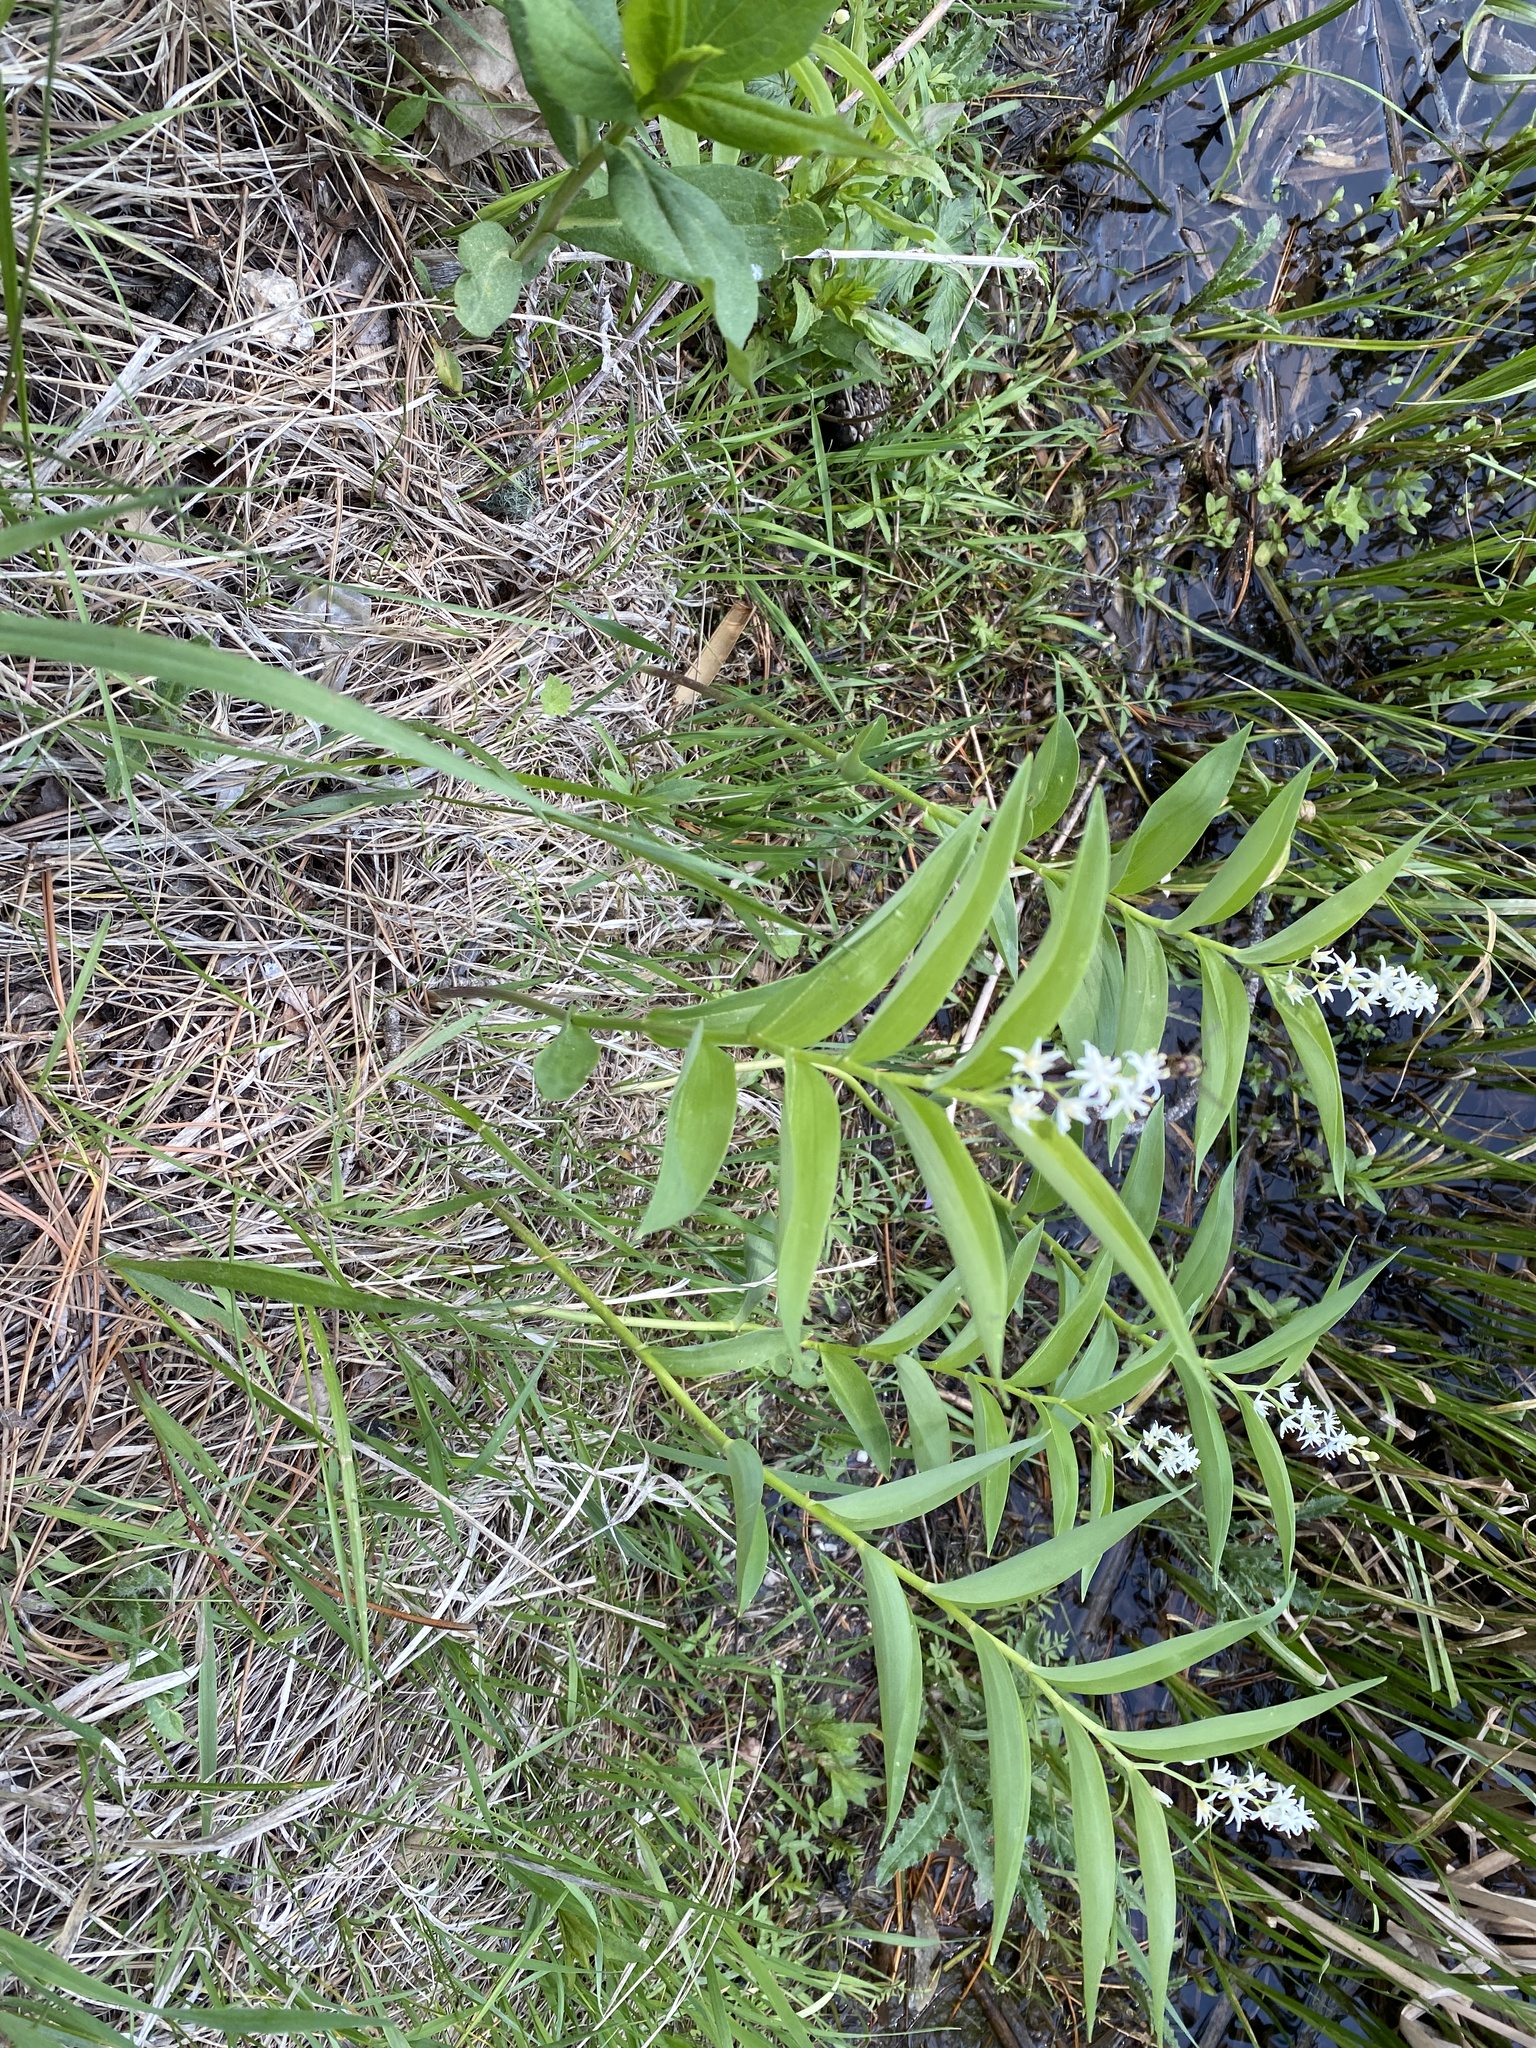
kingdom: Plantae
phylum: Tracheophyta
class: Liliopsida
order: Asparagales
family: Asparagaceae
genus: Maianthemum
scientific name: Maianthemum stellatum
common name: Little false solomon's seal
